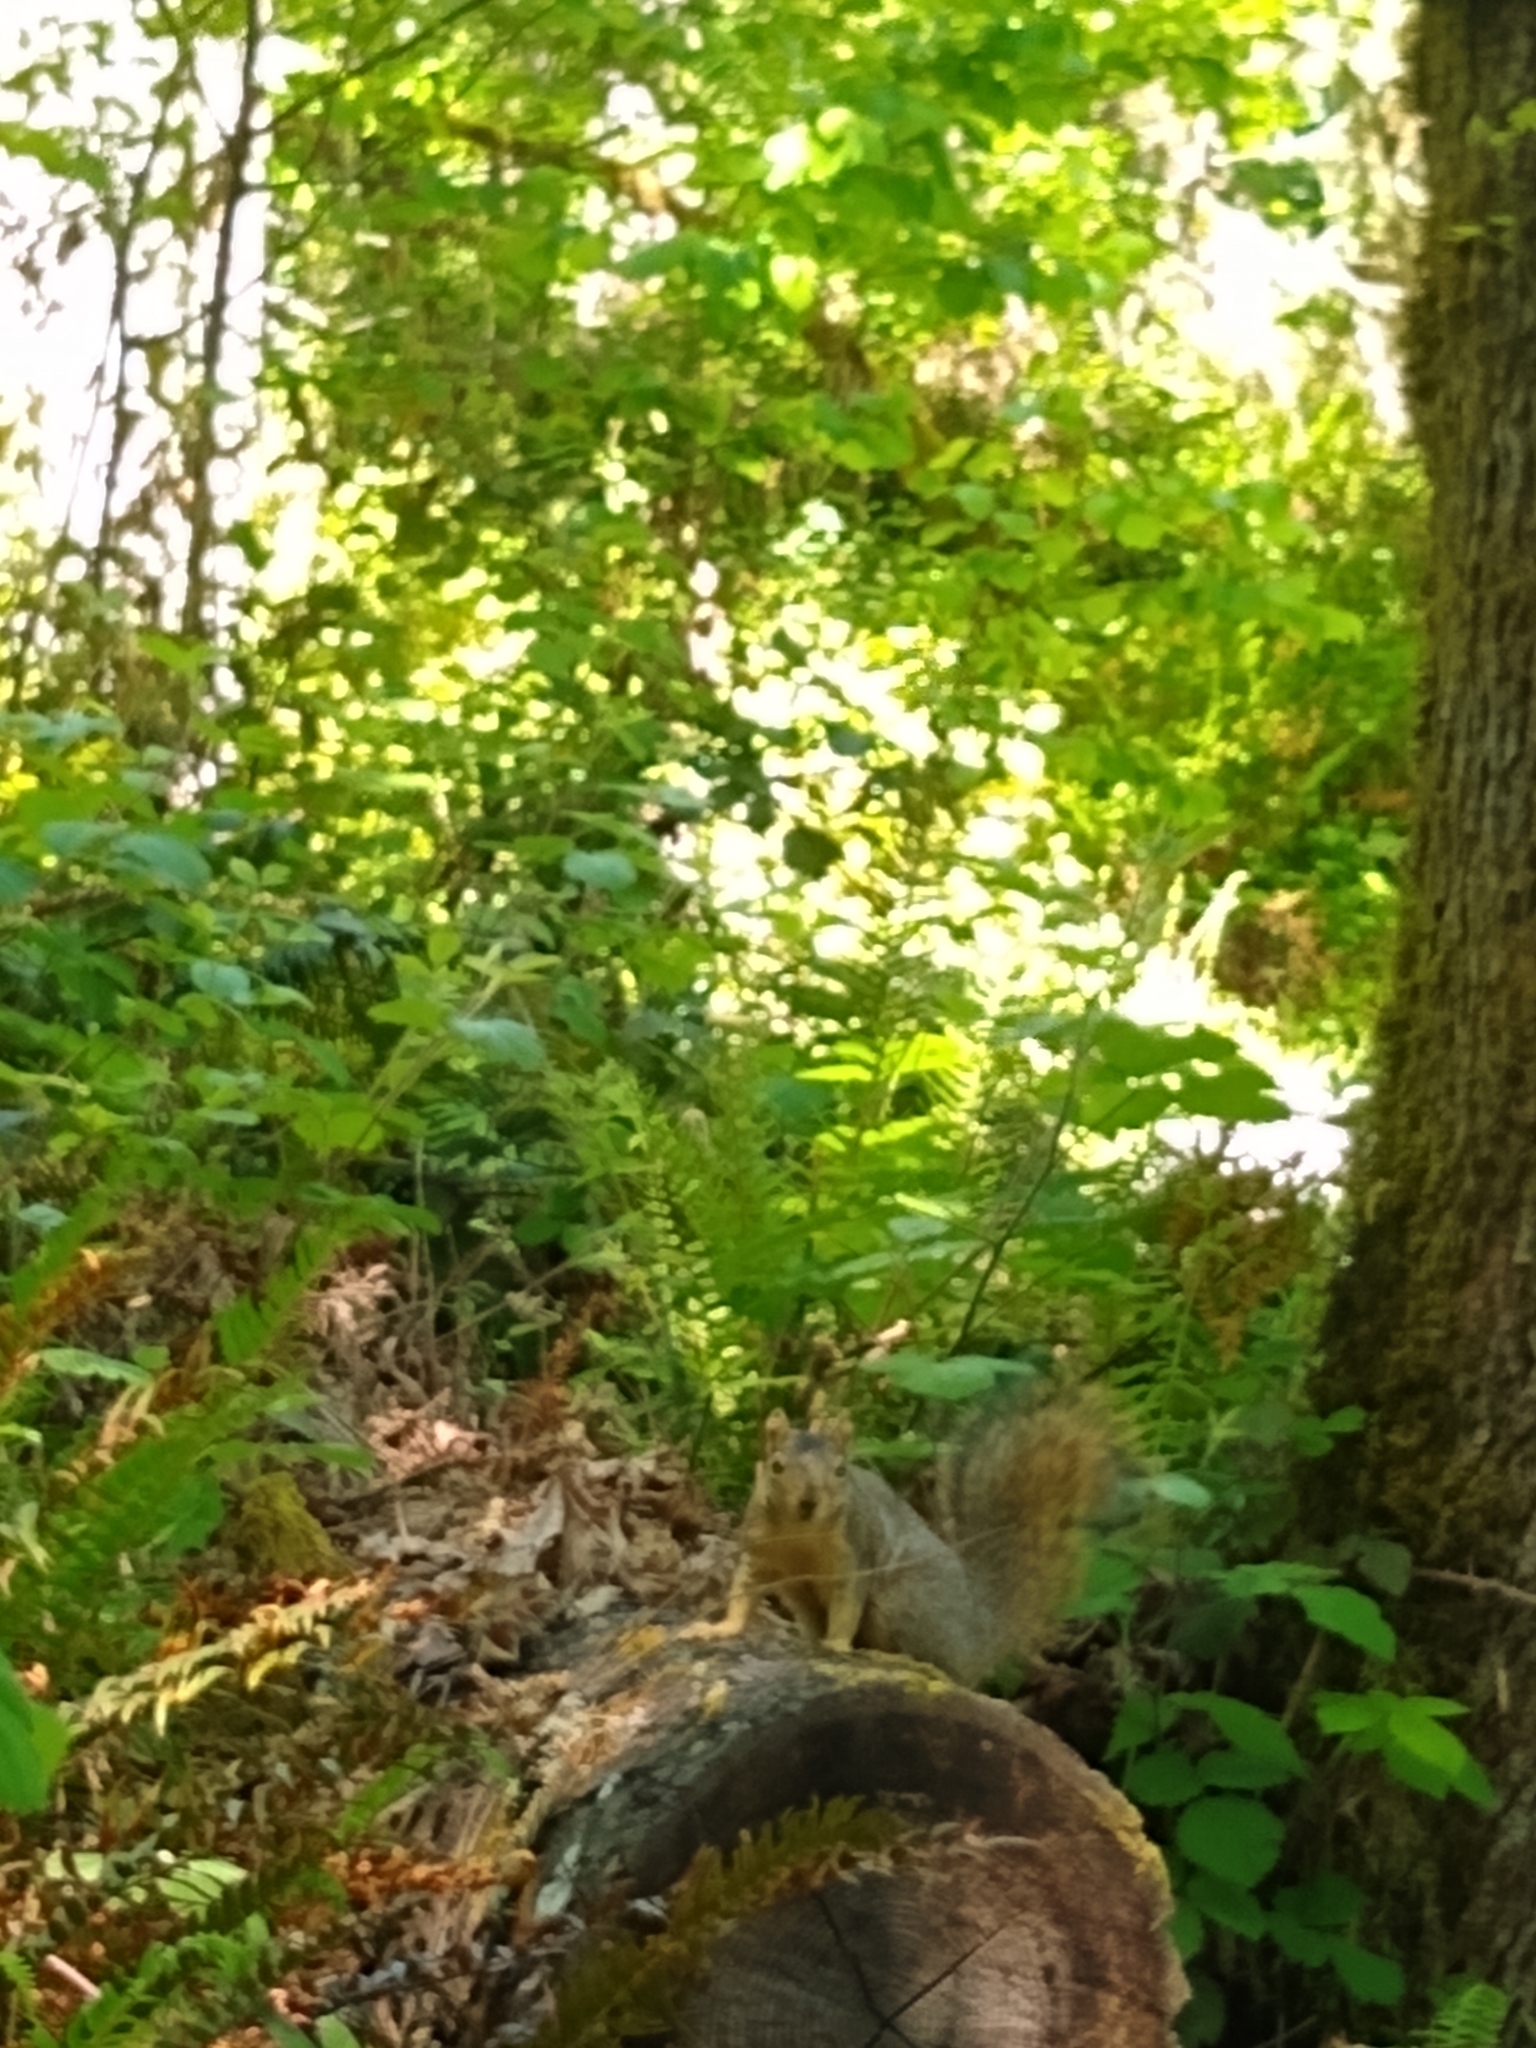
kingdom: Animalia
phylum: Chordata
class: Mammalia
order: Rodentia
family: Sciuridae
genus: Sciurus
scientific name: Sciurus niger
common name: Fox squirrel
